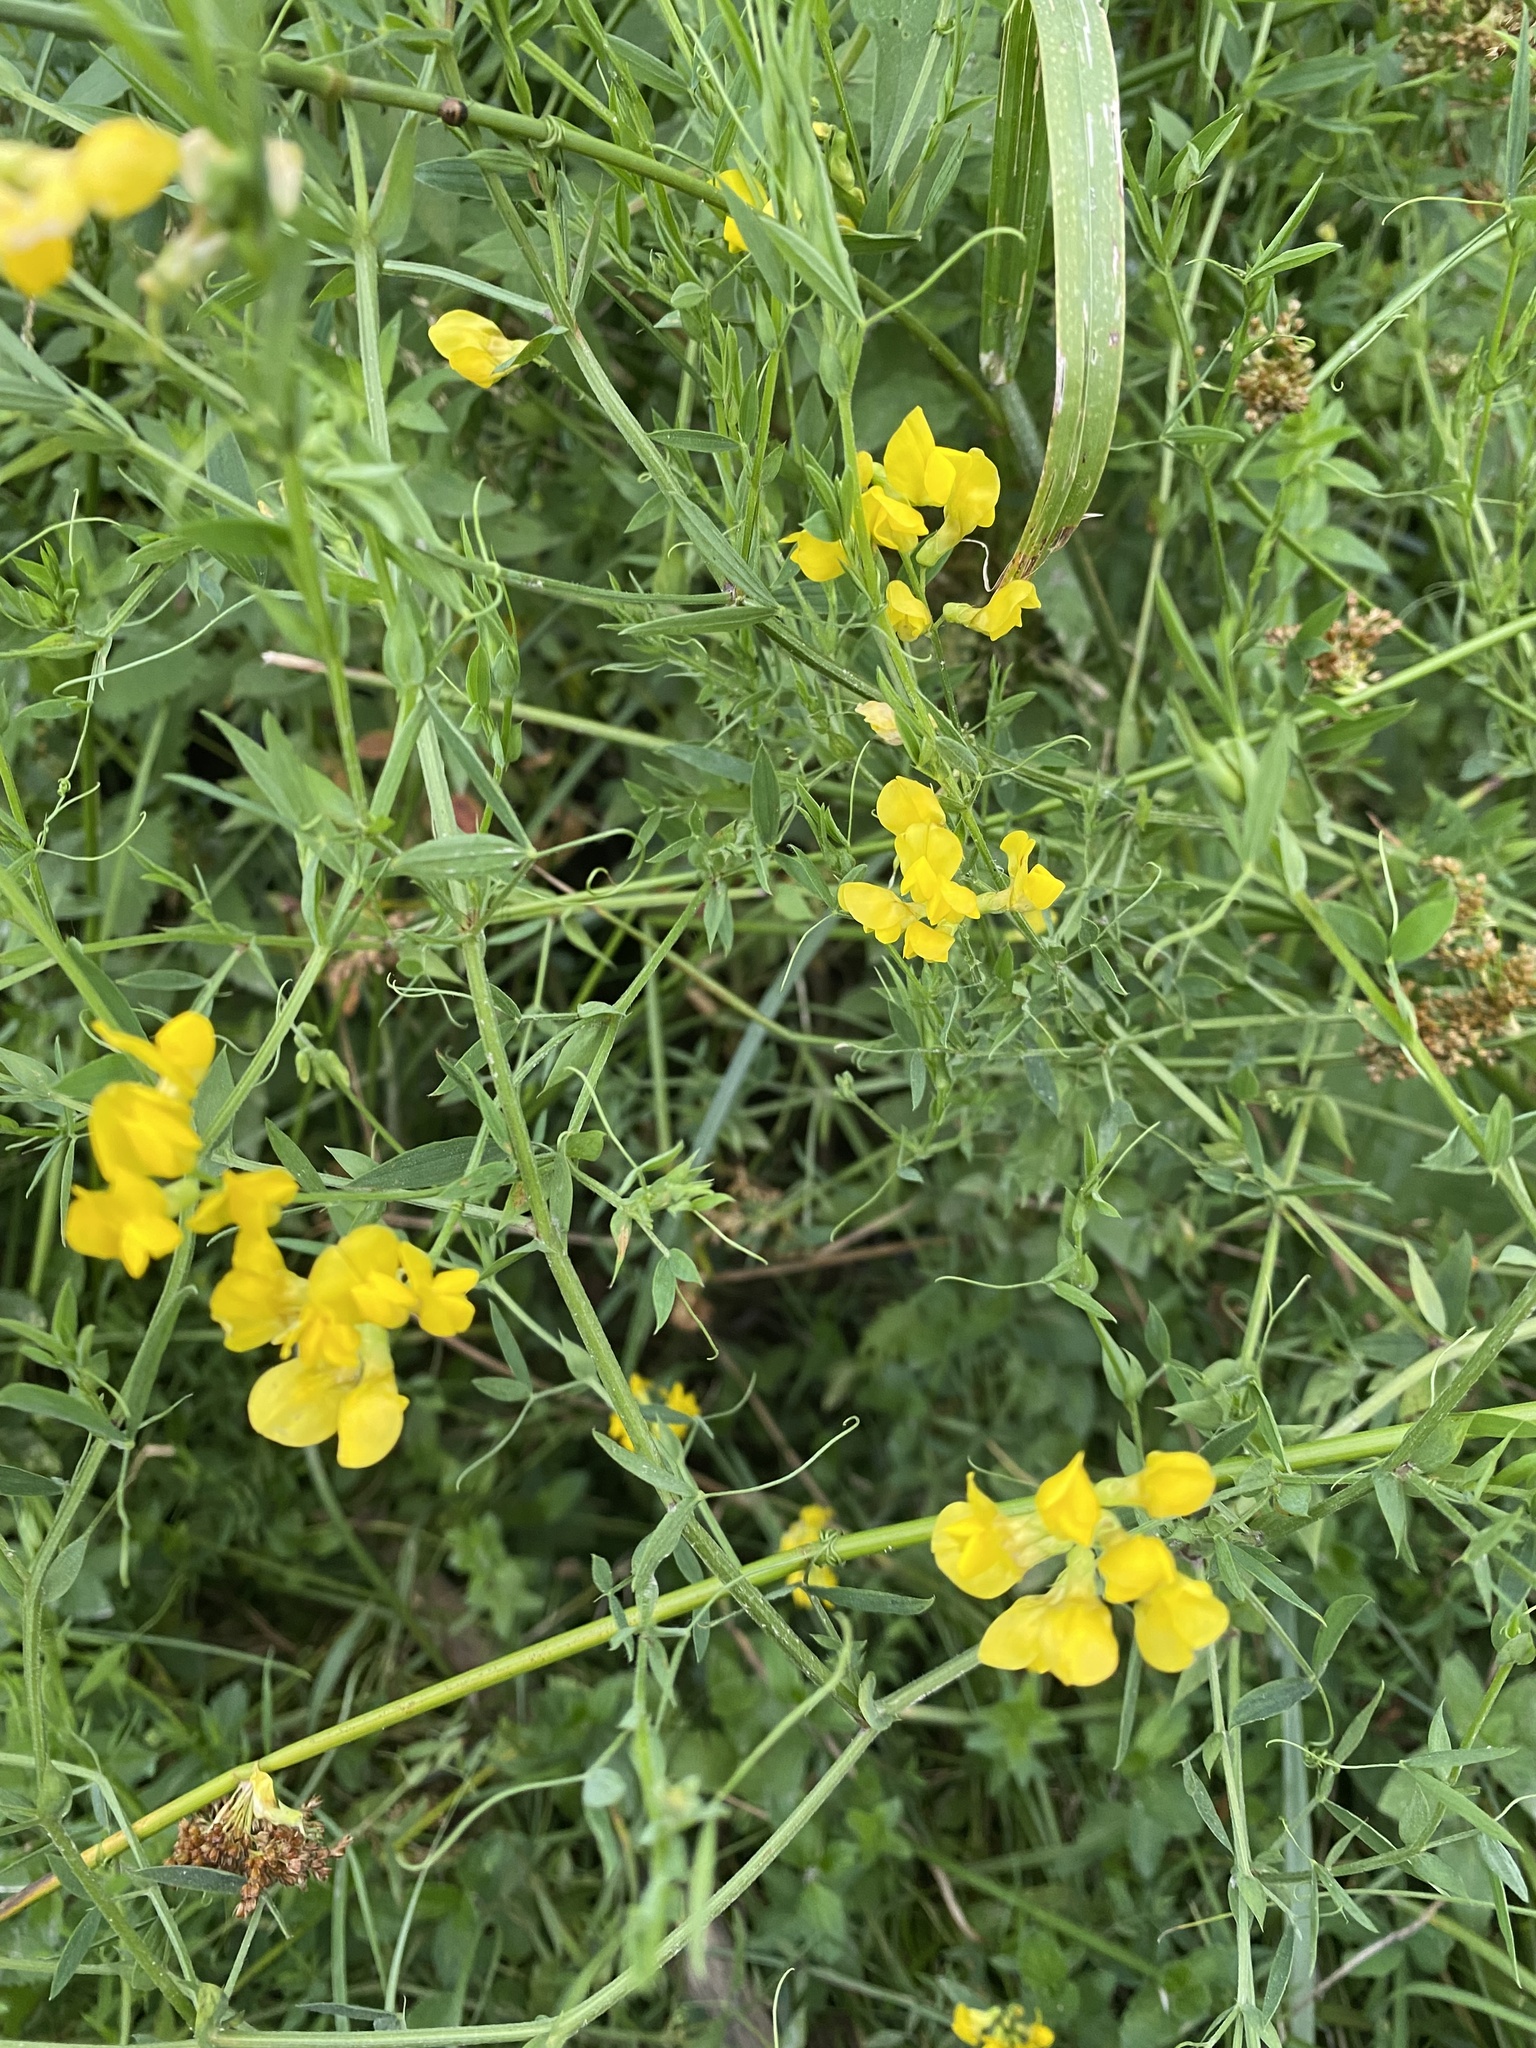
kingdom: Plantae
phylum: Tracheophyta
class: Magnoliopsida
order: Fabales
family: Fabaceae
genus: Lathyrus
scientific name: Lathyrus pratensis
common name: Meadow vetchling
